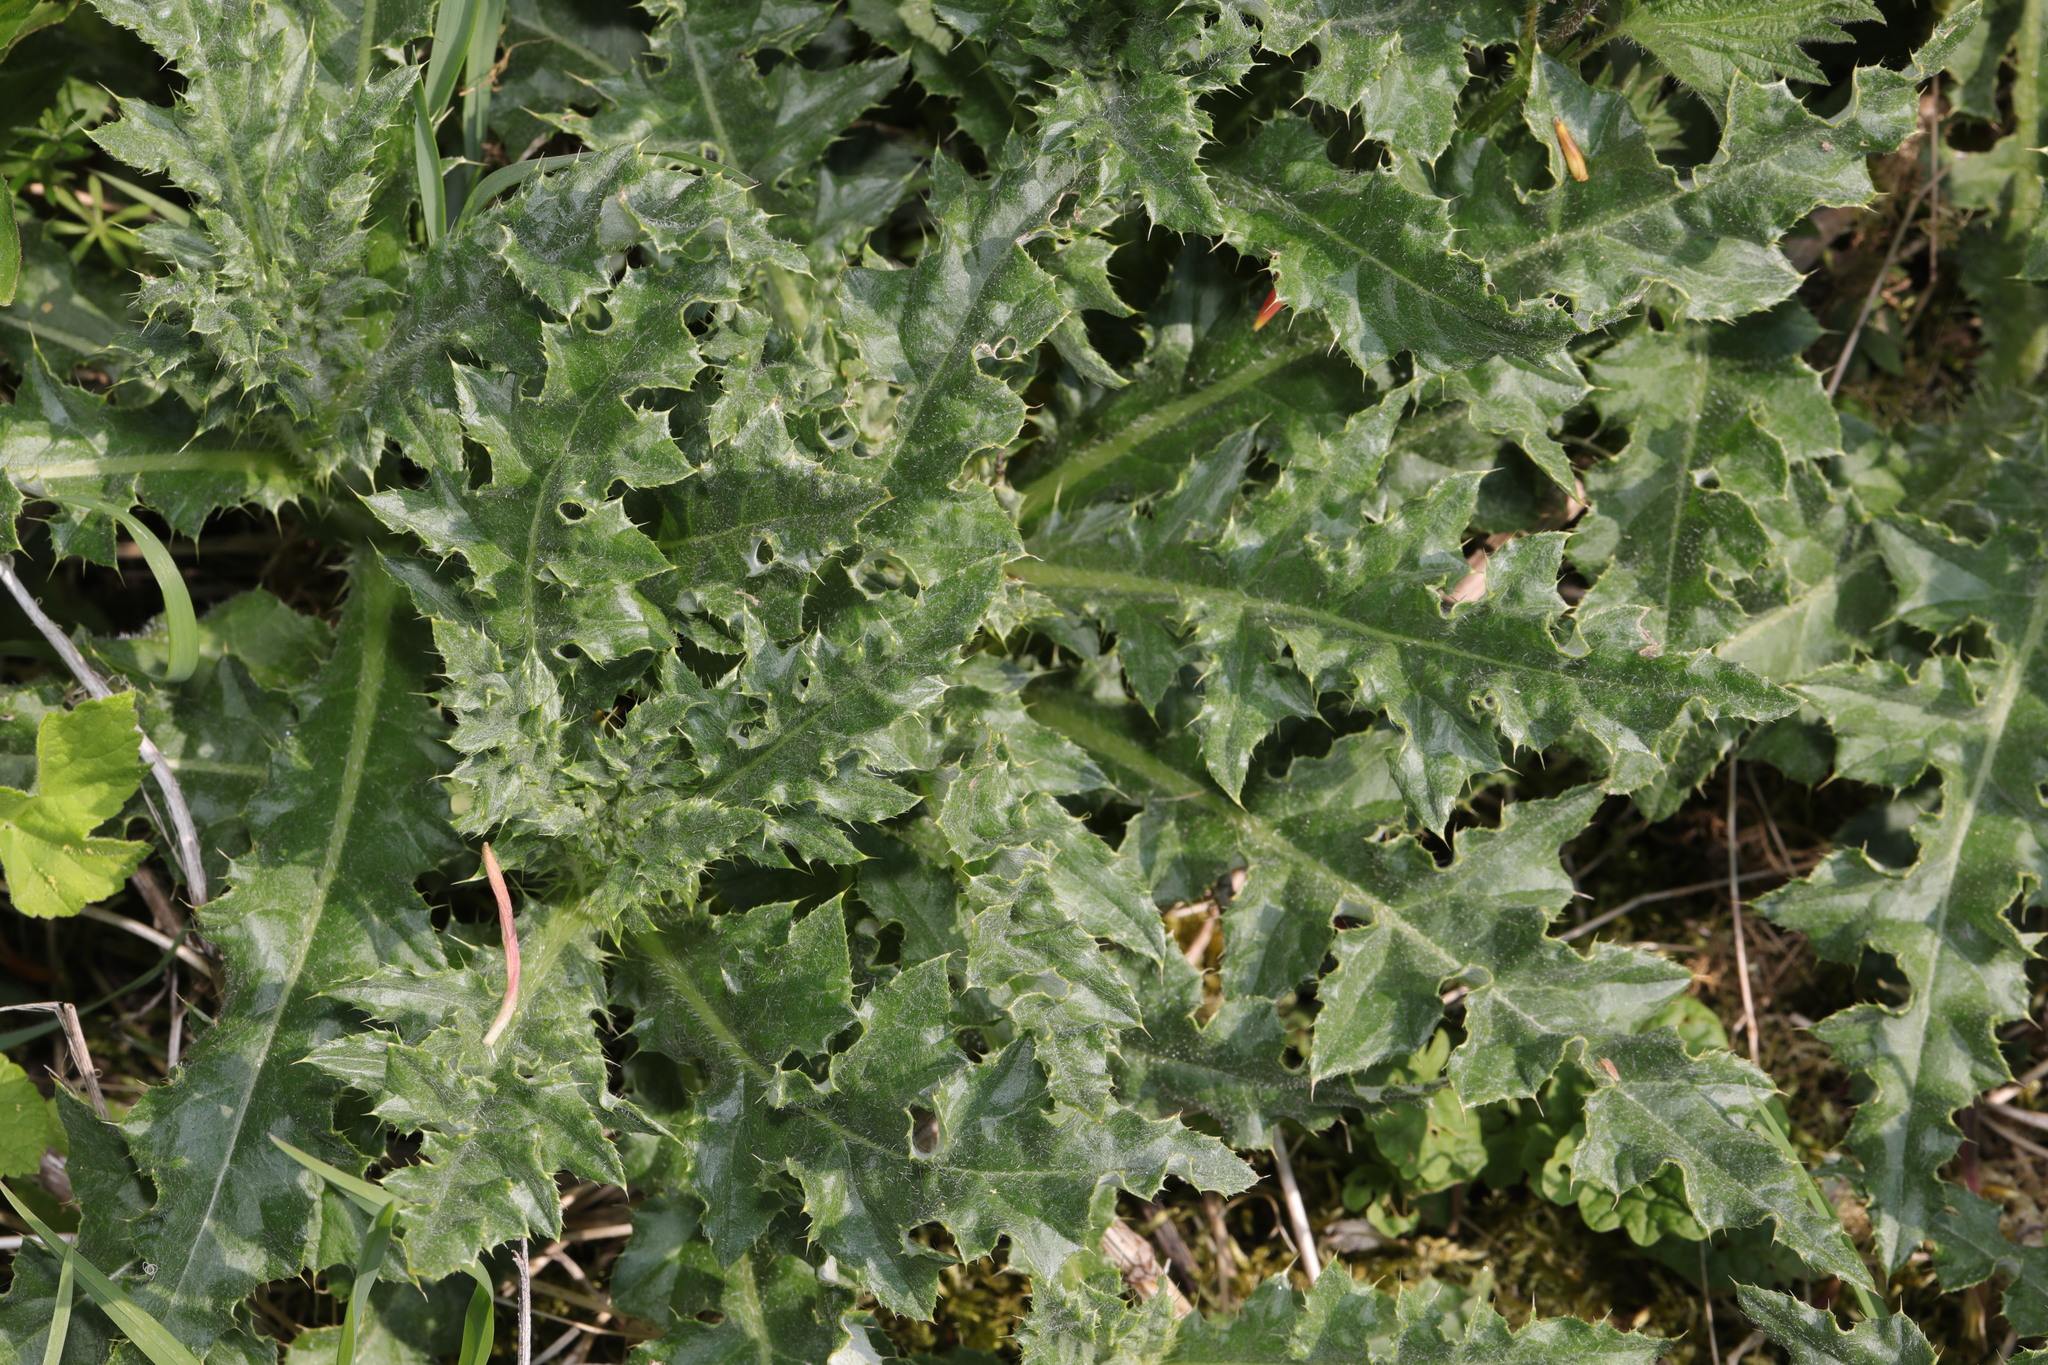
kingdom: Plantae
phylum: Tracheophyta
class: Magnoliopsida
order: Asterales
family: Asteraceae
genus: Cirsium
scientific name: Cirsium arvense
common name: Creeping thistle
